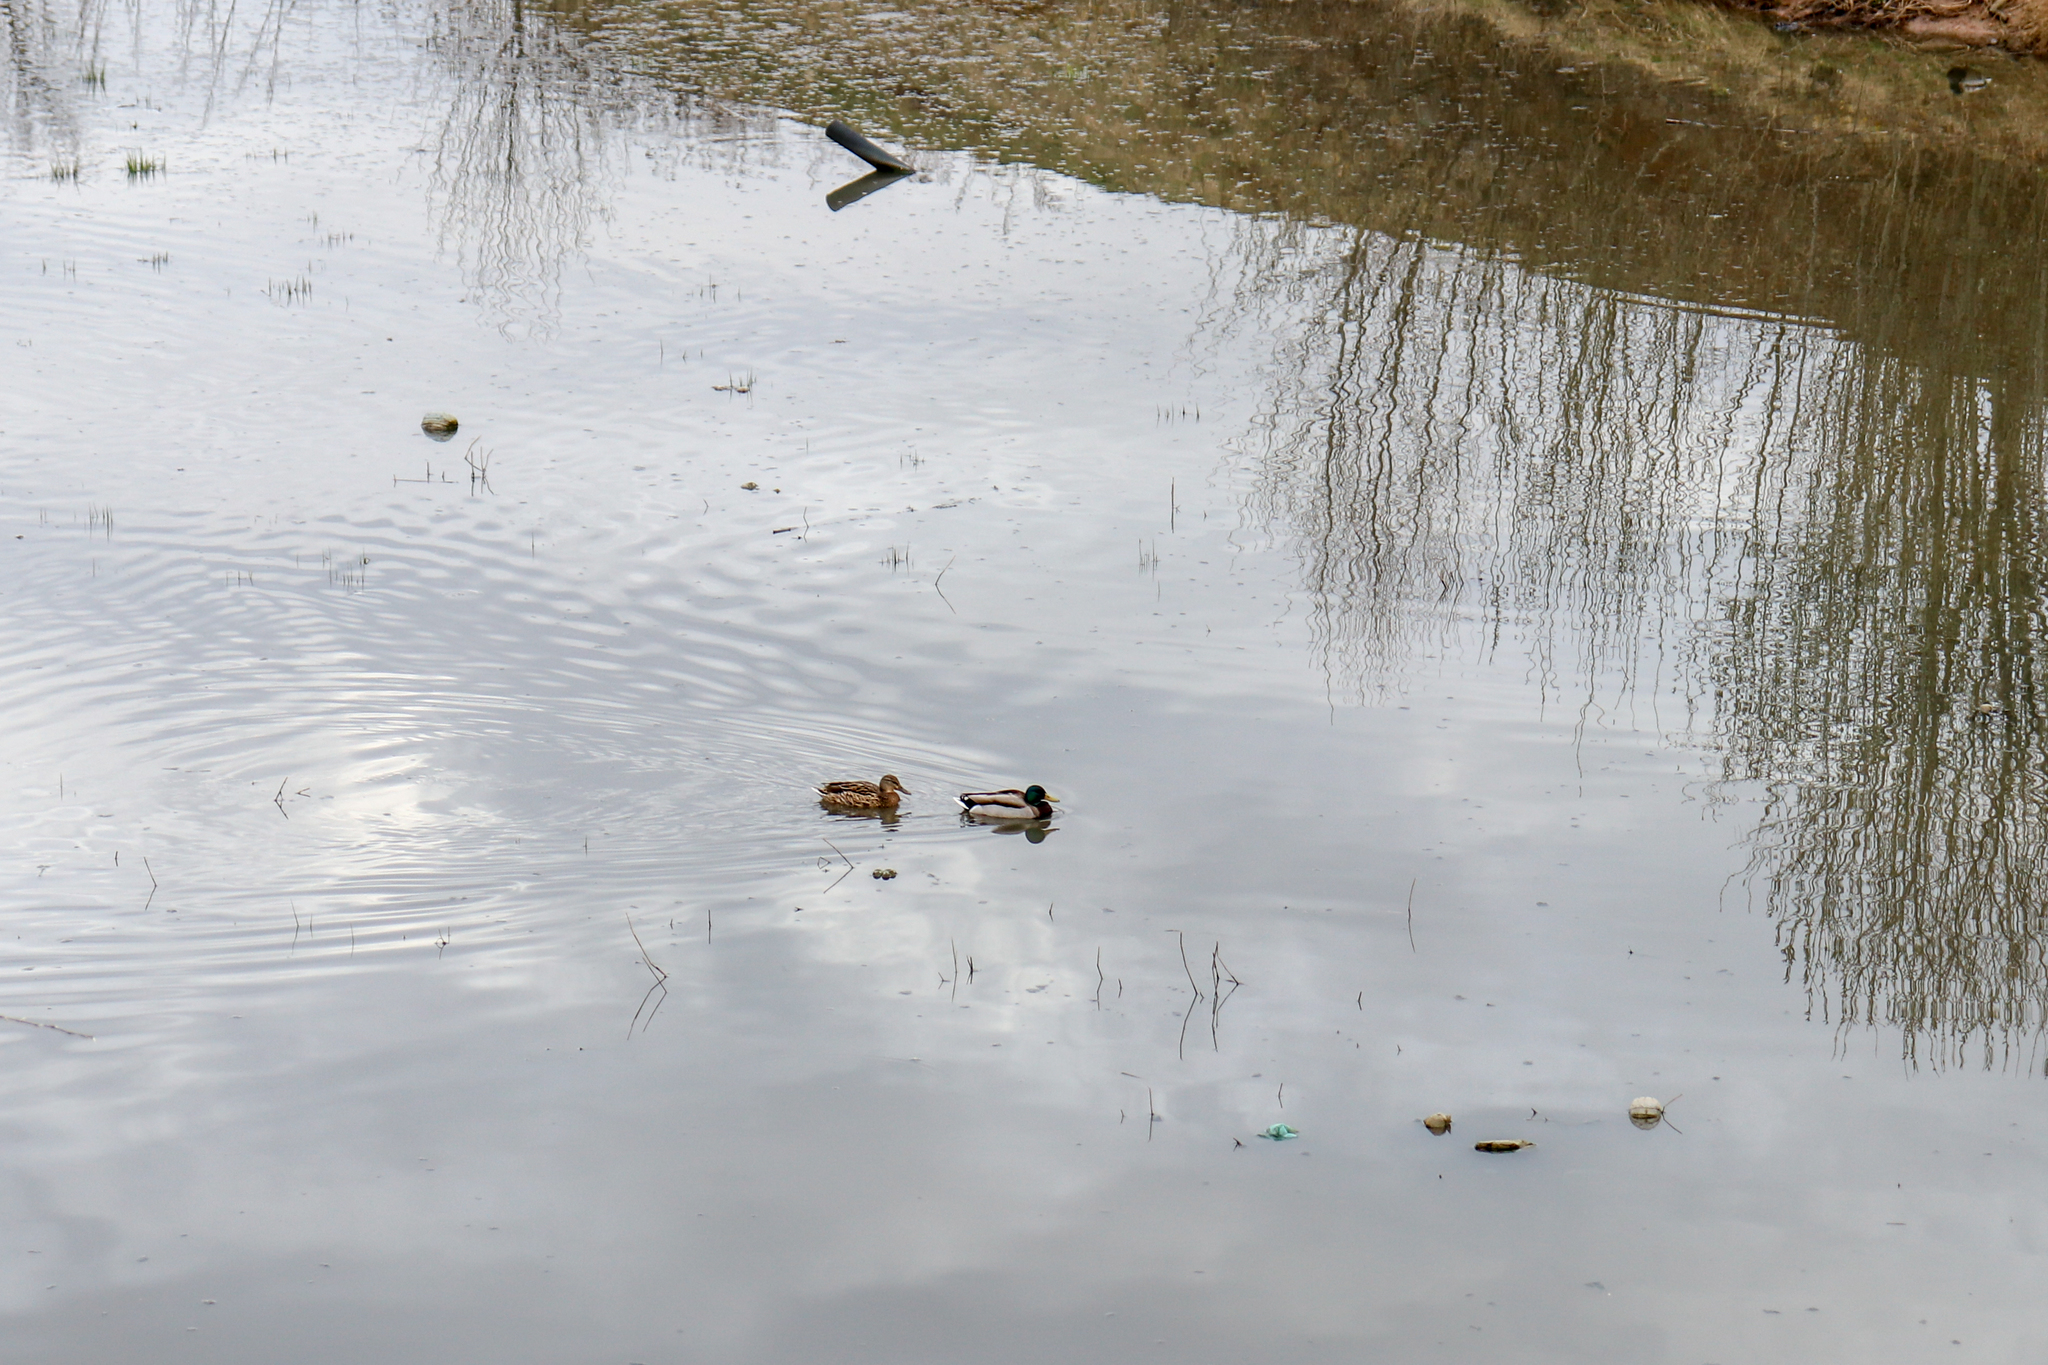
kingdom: Animalia
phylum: Chordata
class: Aves
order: Anseriformes
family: Anatidae
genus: Anas
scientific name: Anas platyrhynchos
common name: Mallard
